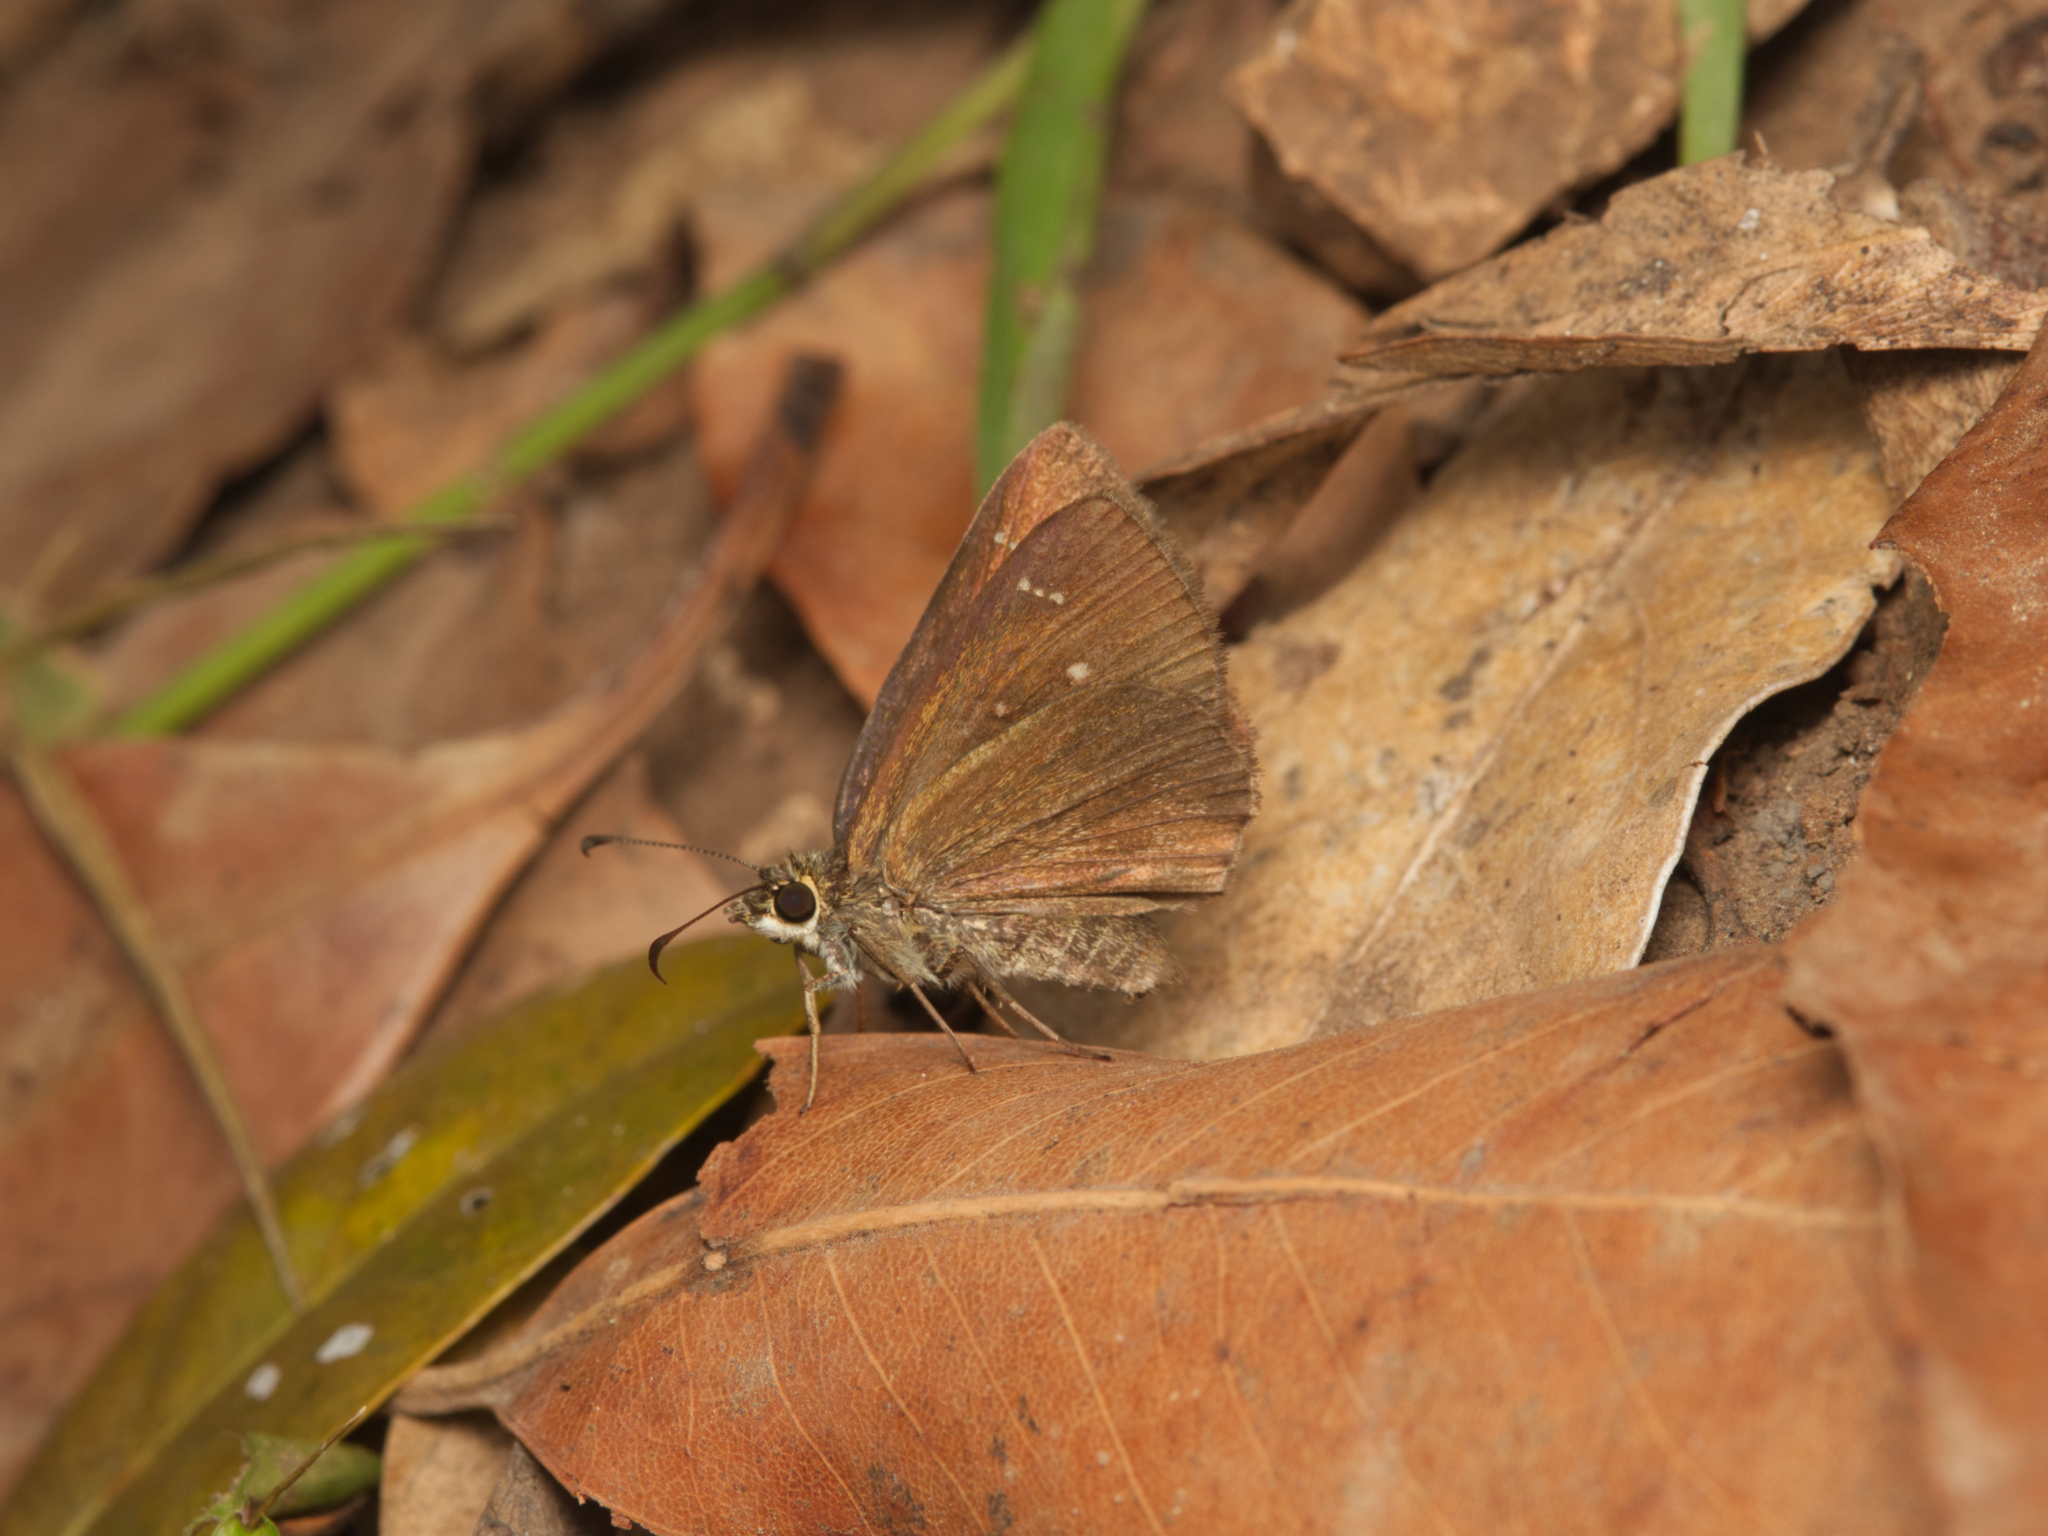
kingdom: Animalia
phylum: Arthropoda
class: Insecta
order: Lepidoptera
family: Hesperiidae
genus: Toxidia
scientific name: Toxidia thyrrhus
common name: Dusky grass-skipper
